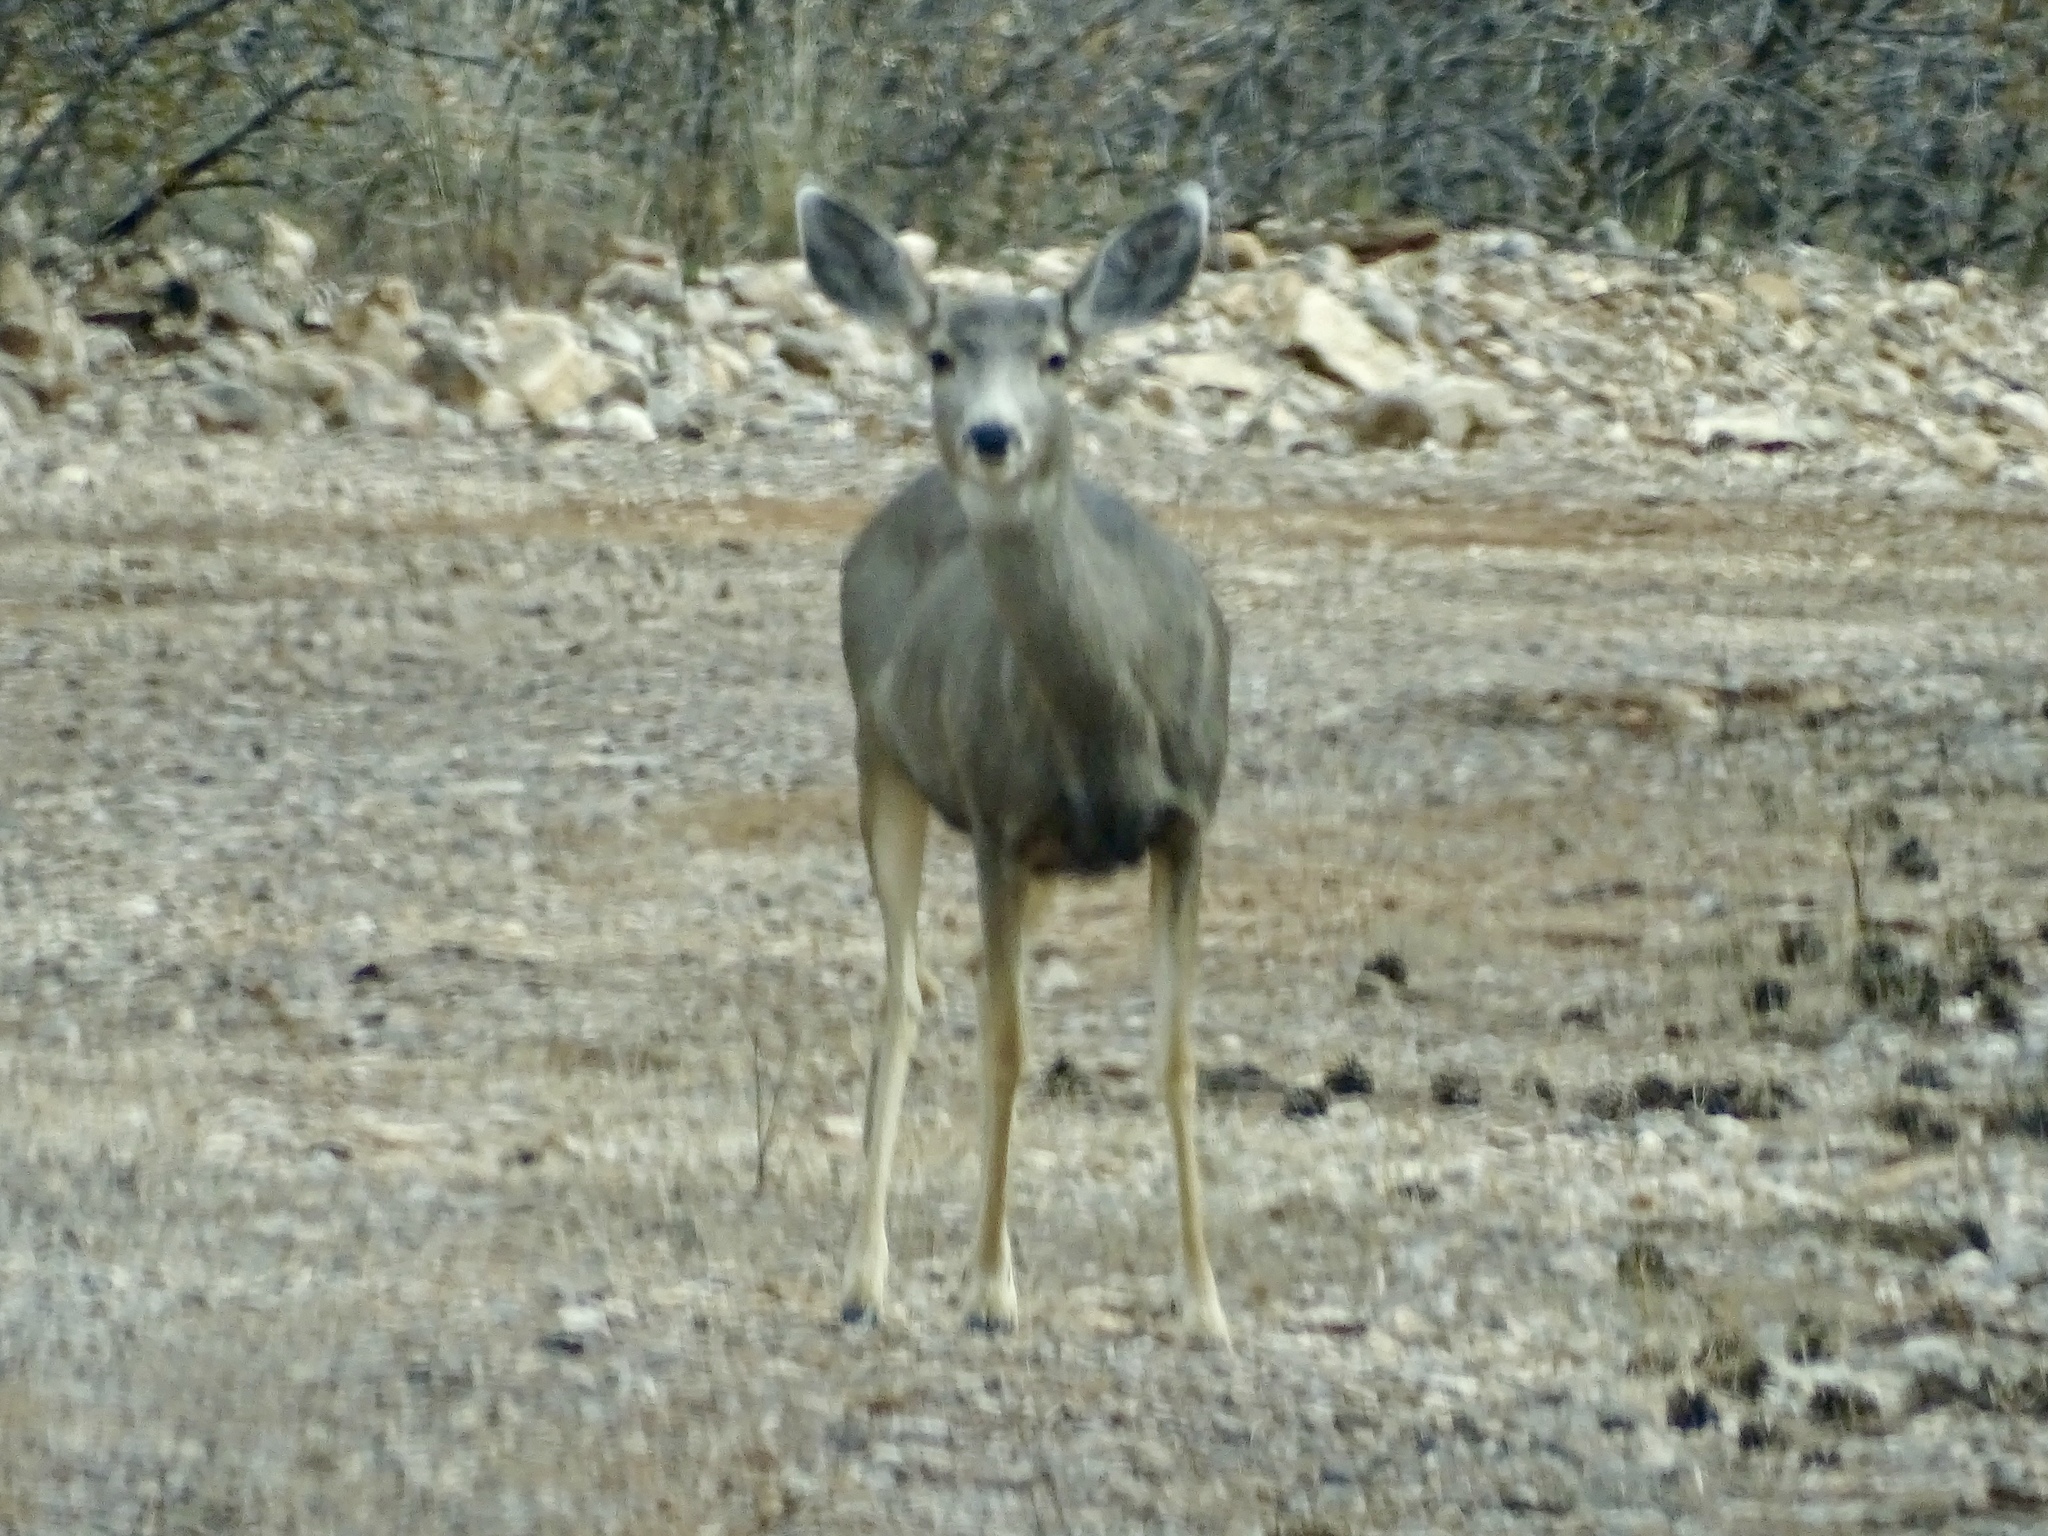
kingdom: Animalia
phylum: Chordata
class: Mammalia
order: Artiodactyla
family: Cervidae
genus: Odocoileus
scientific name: Odocoileus hemionus
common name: Mule deer
